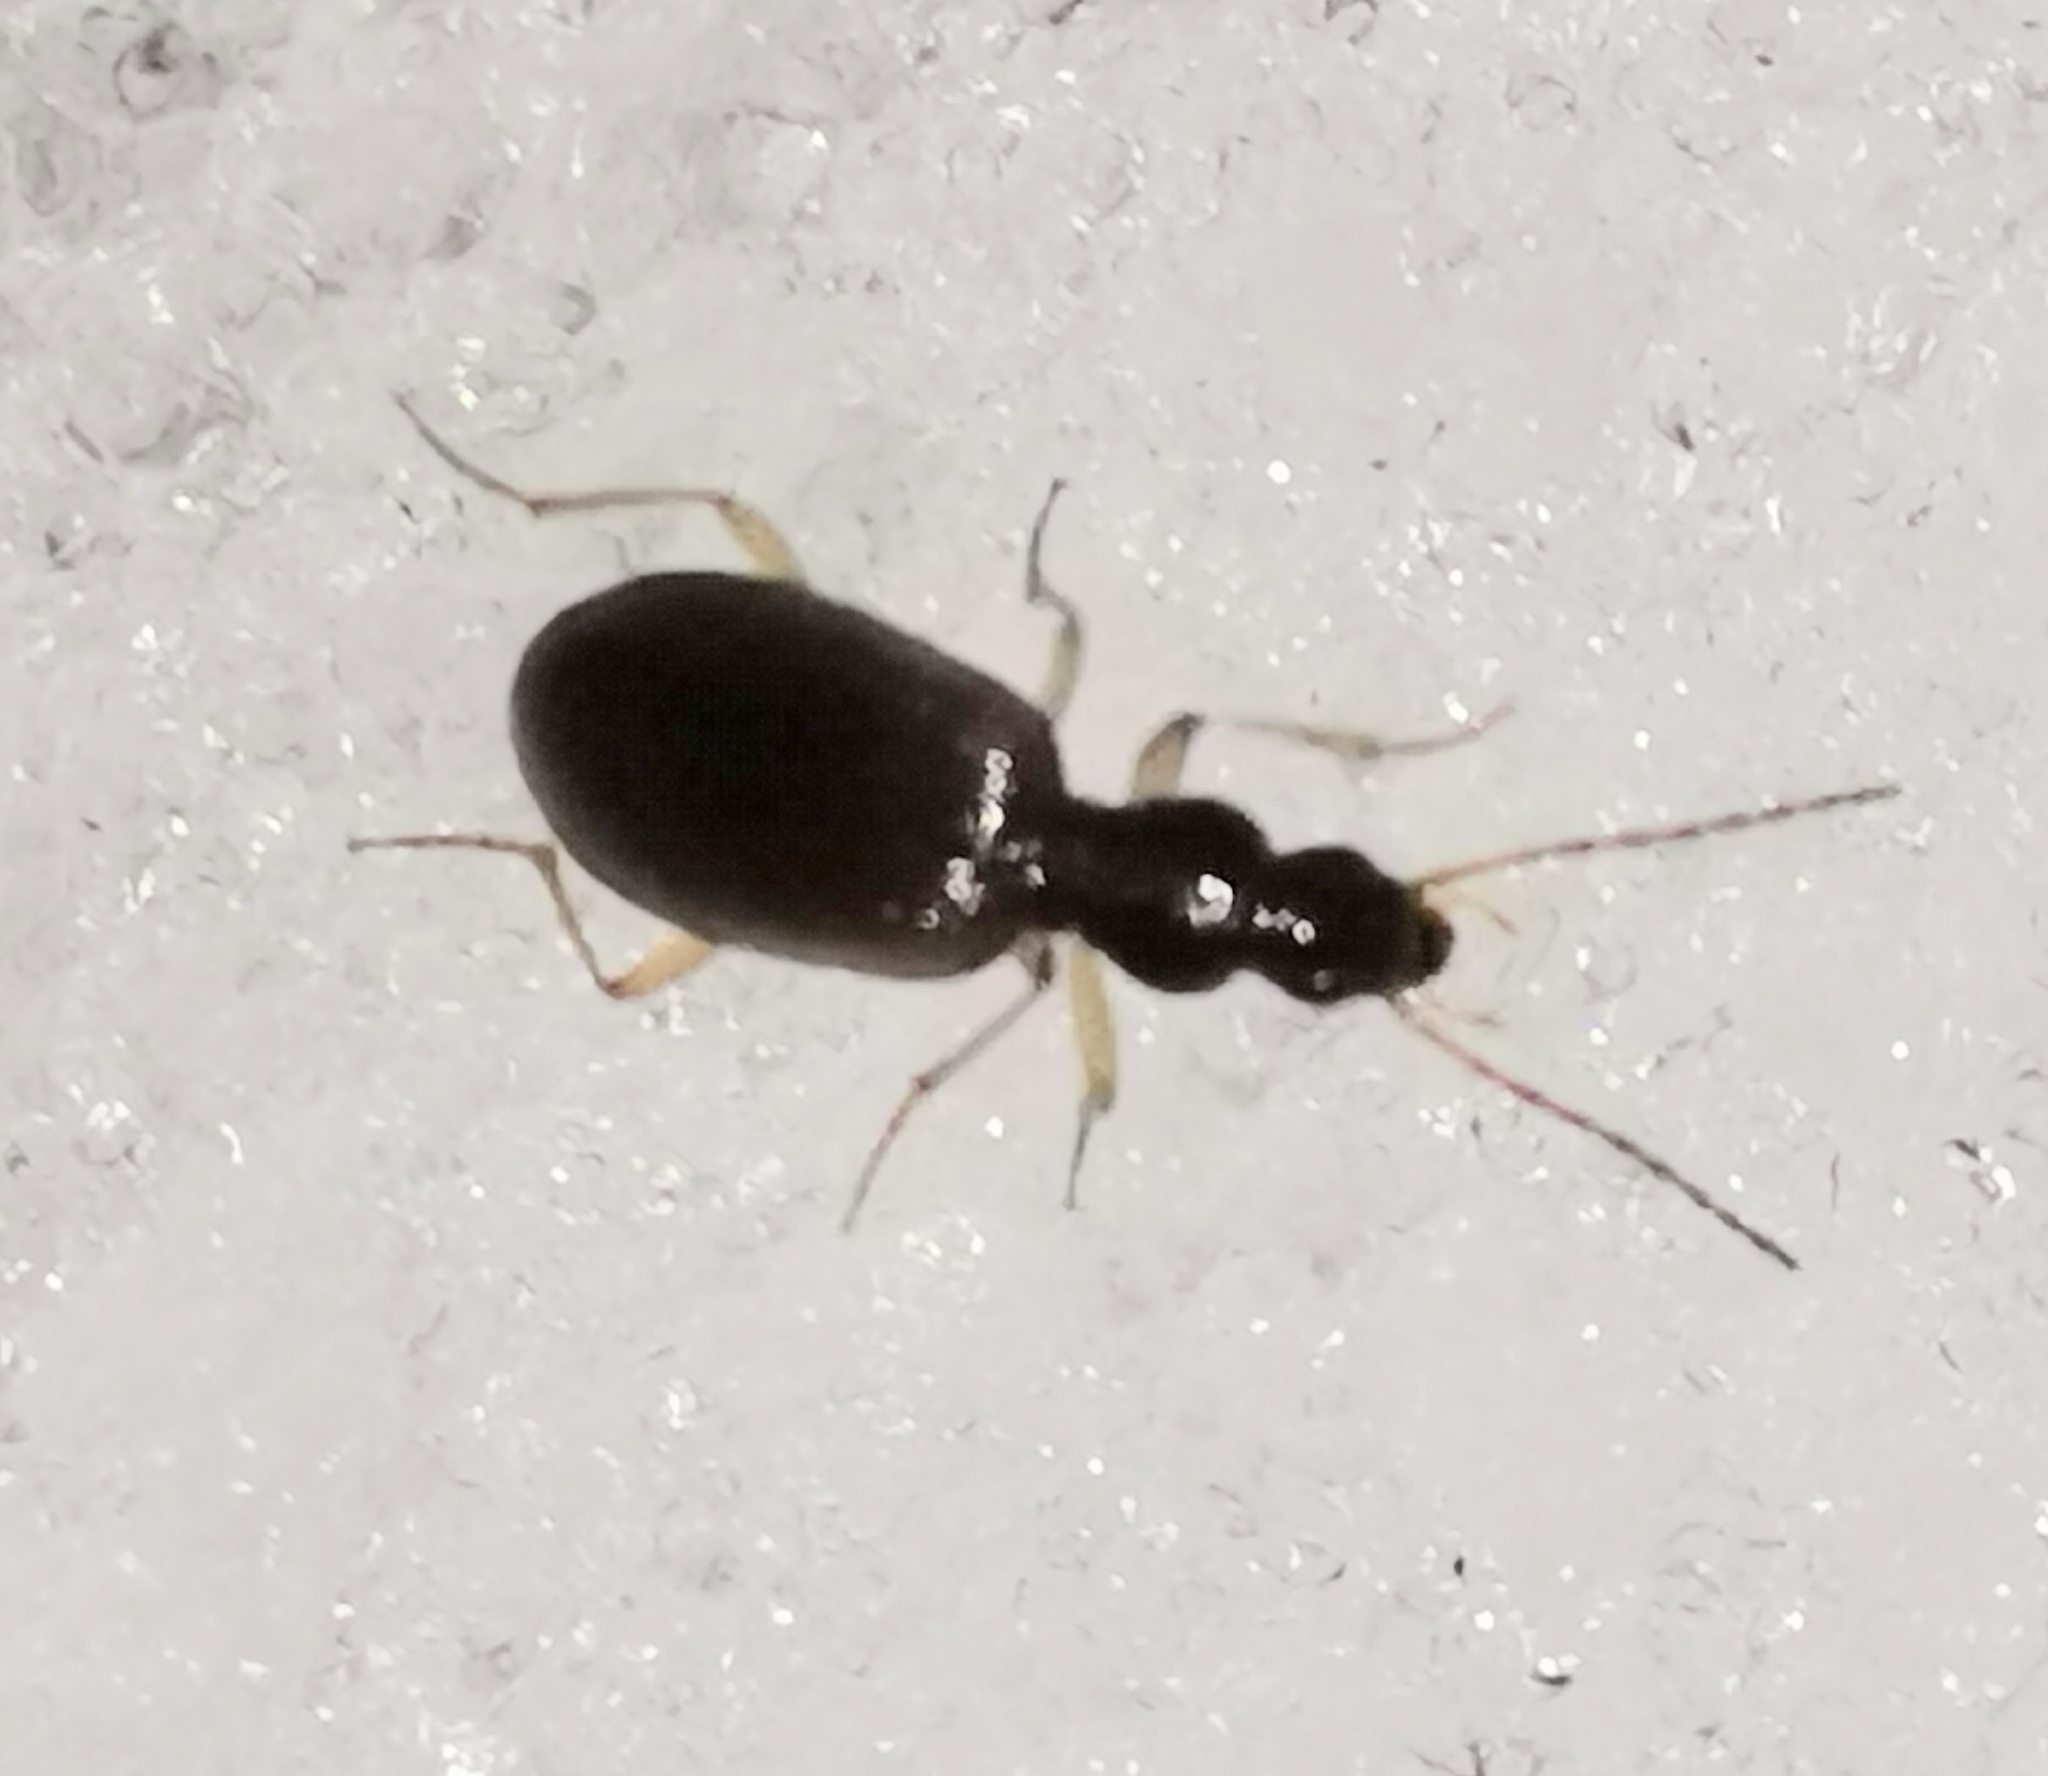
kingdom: Animalia
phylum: Arthropoda
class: Insecta
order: Coleoptera
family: Carabidae
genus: Oxypselaphus
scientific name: Oxypselaphus obscurus
